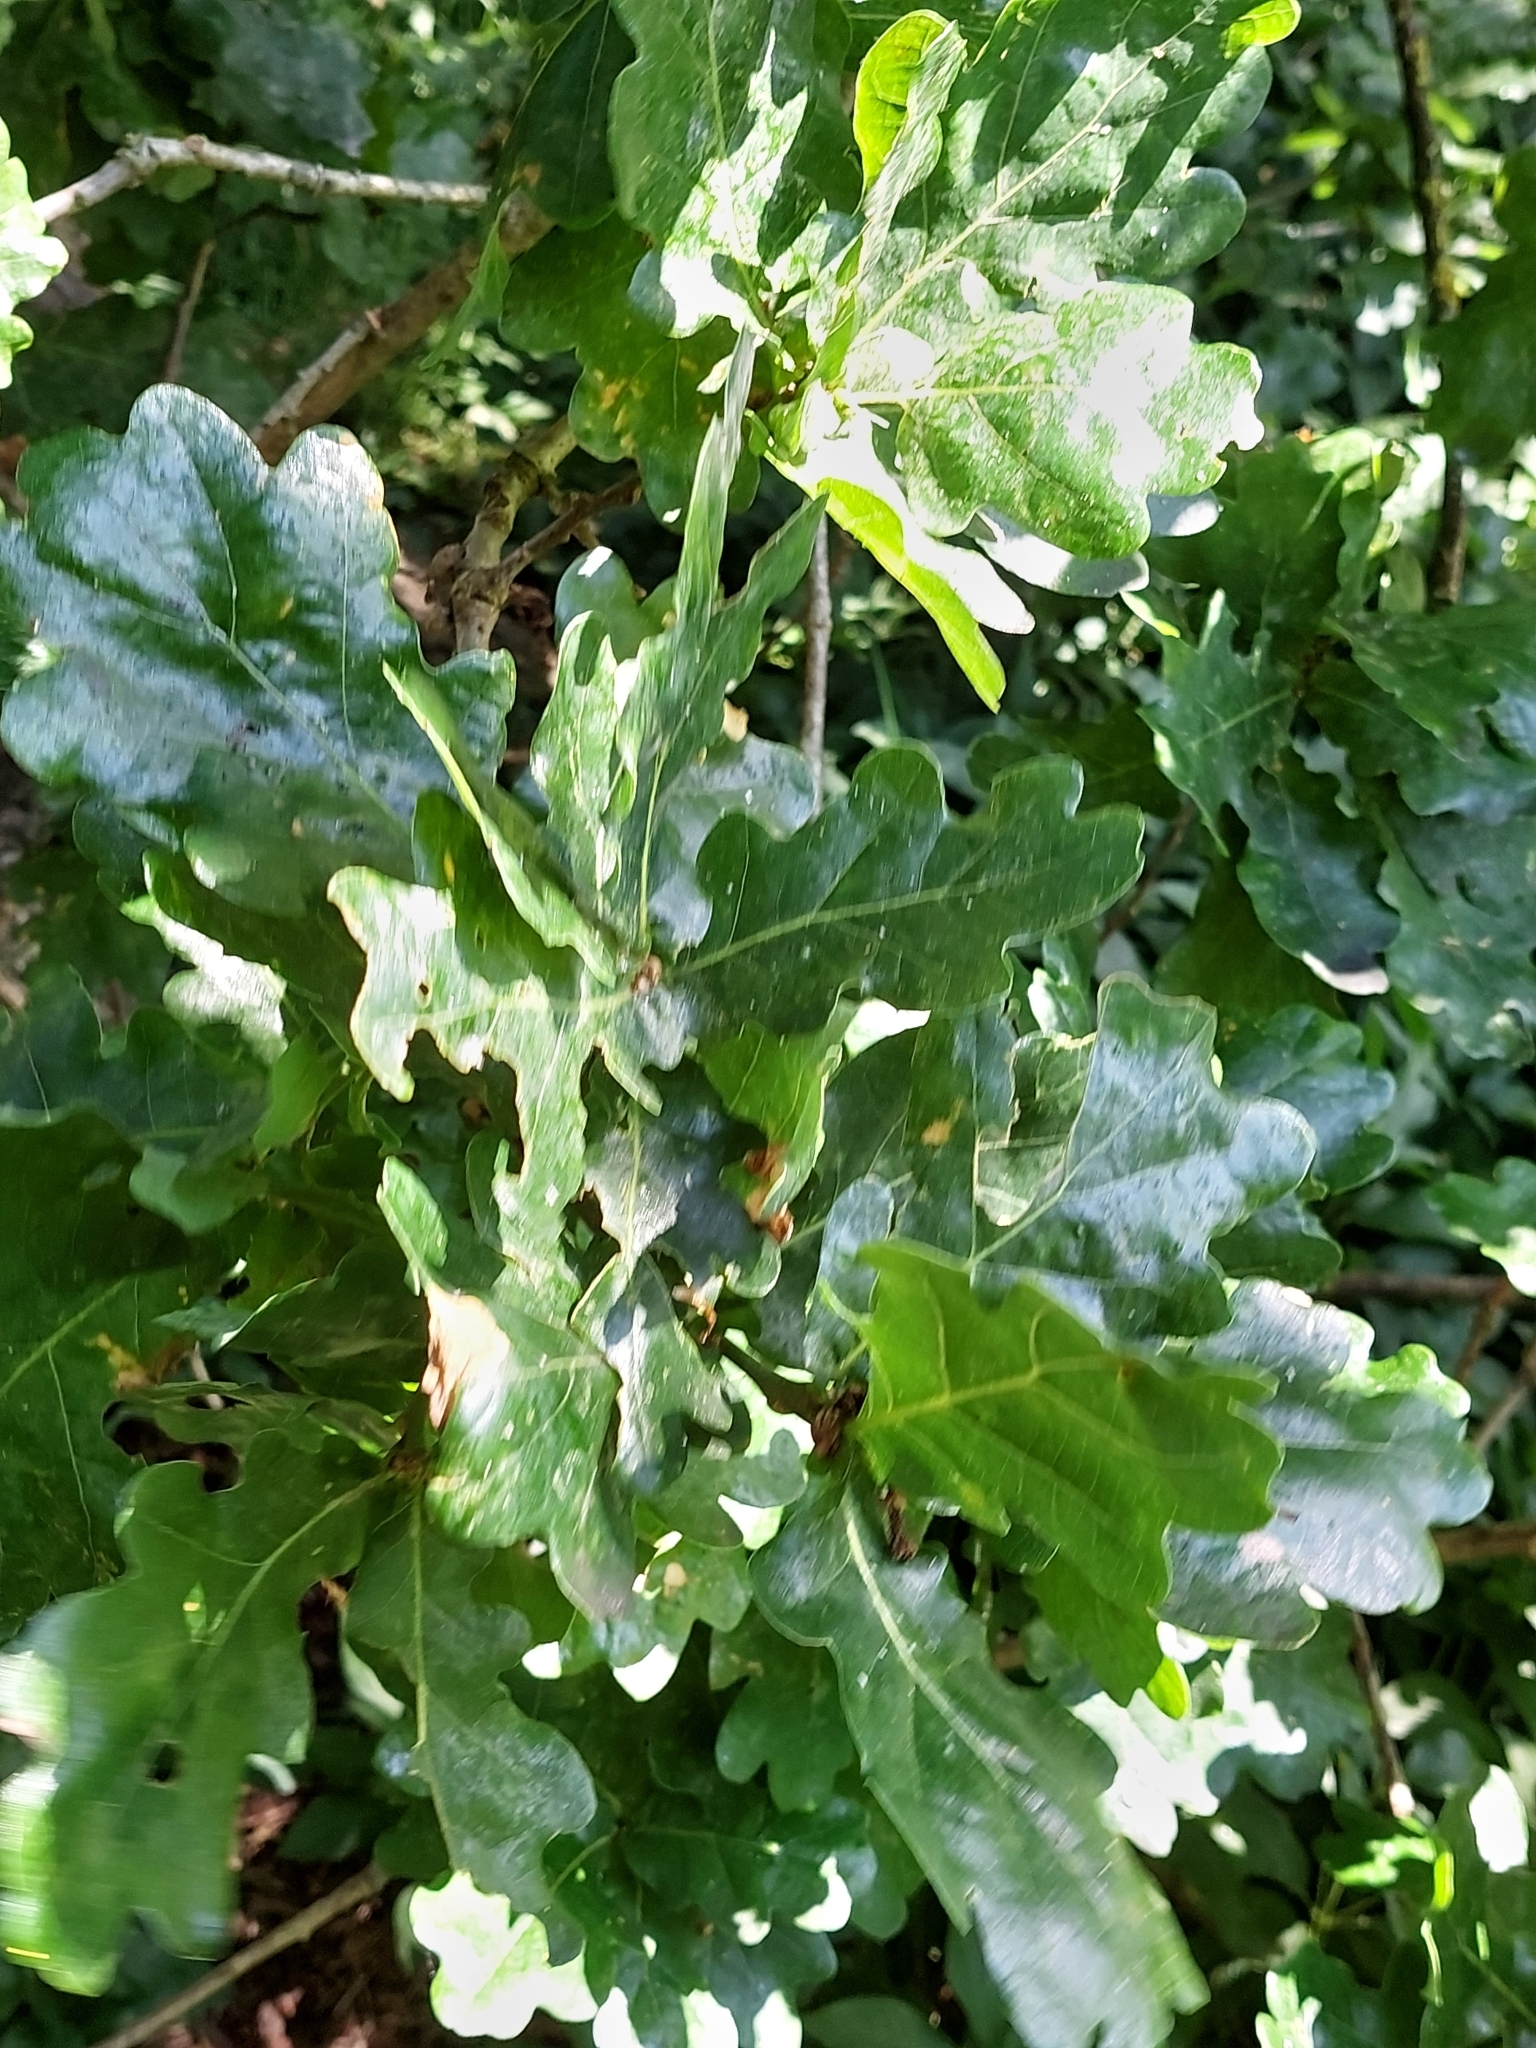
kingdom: Plantae
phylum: Tracheophyta
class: Magnoliopsida
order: Fagales
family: Fagaceae
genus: Quercus
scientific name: Quercus robur
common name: Pedunculate oak
